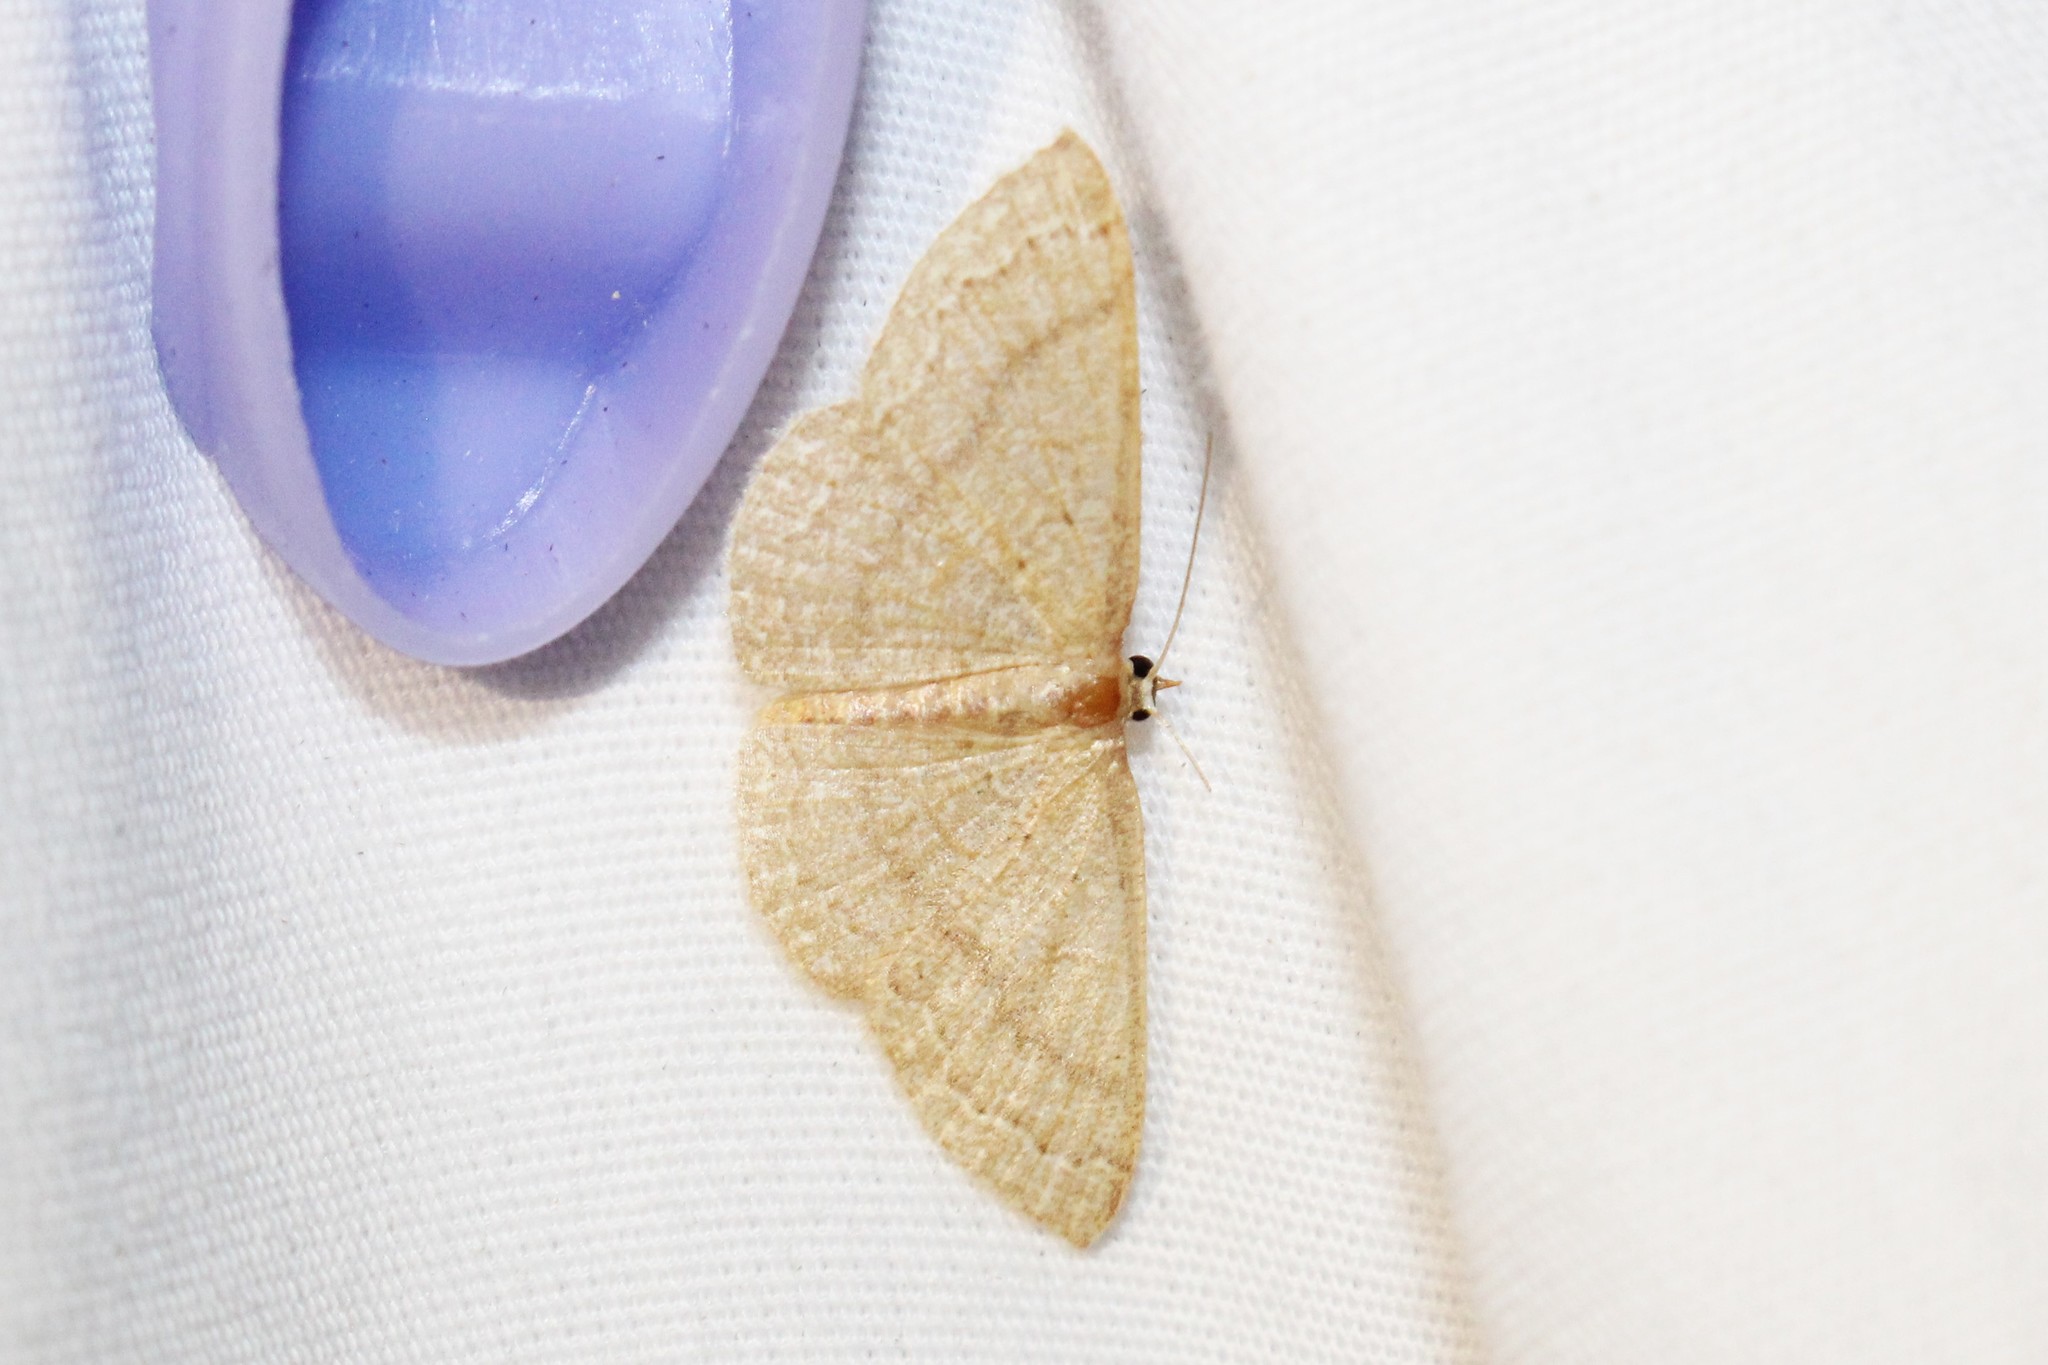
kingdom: Animalia
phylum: Arthropoda
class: Insecta
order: Lepidoptera
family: Geometridae
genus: Pleuroprucha
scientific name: Pleuroprucha insulsaria
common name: Common tan wave
